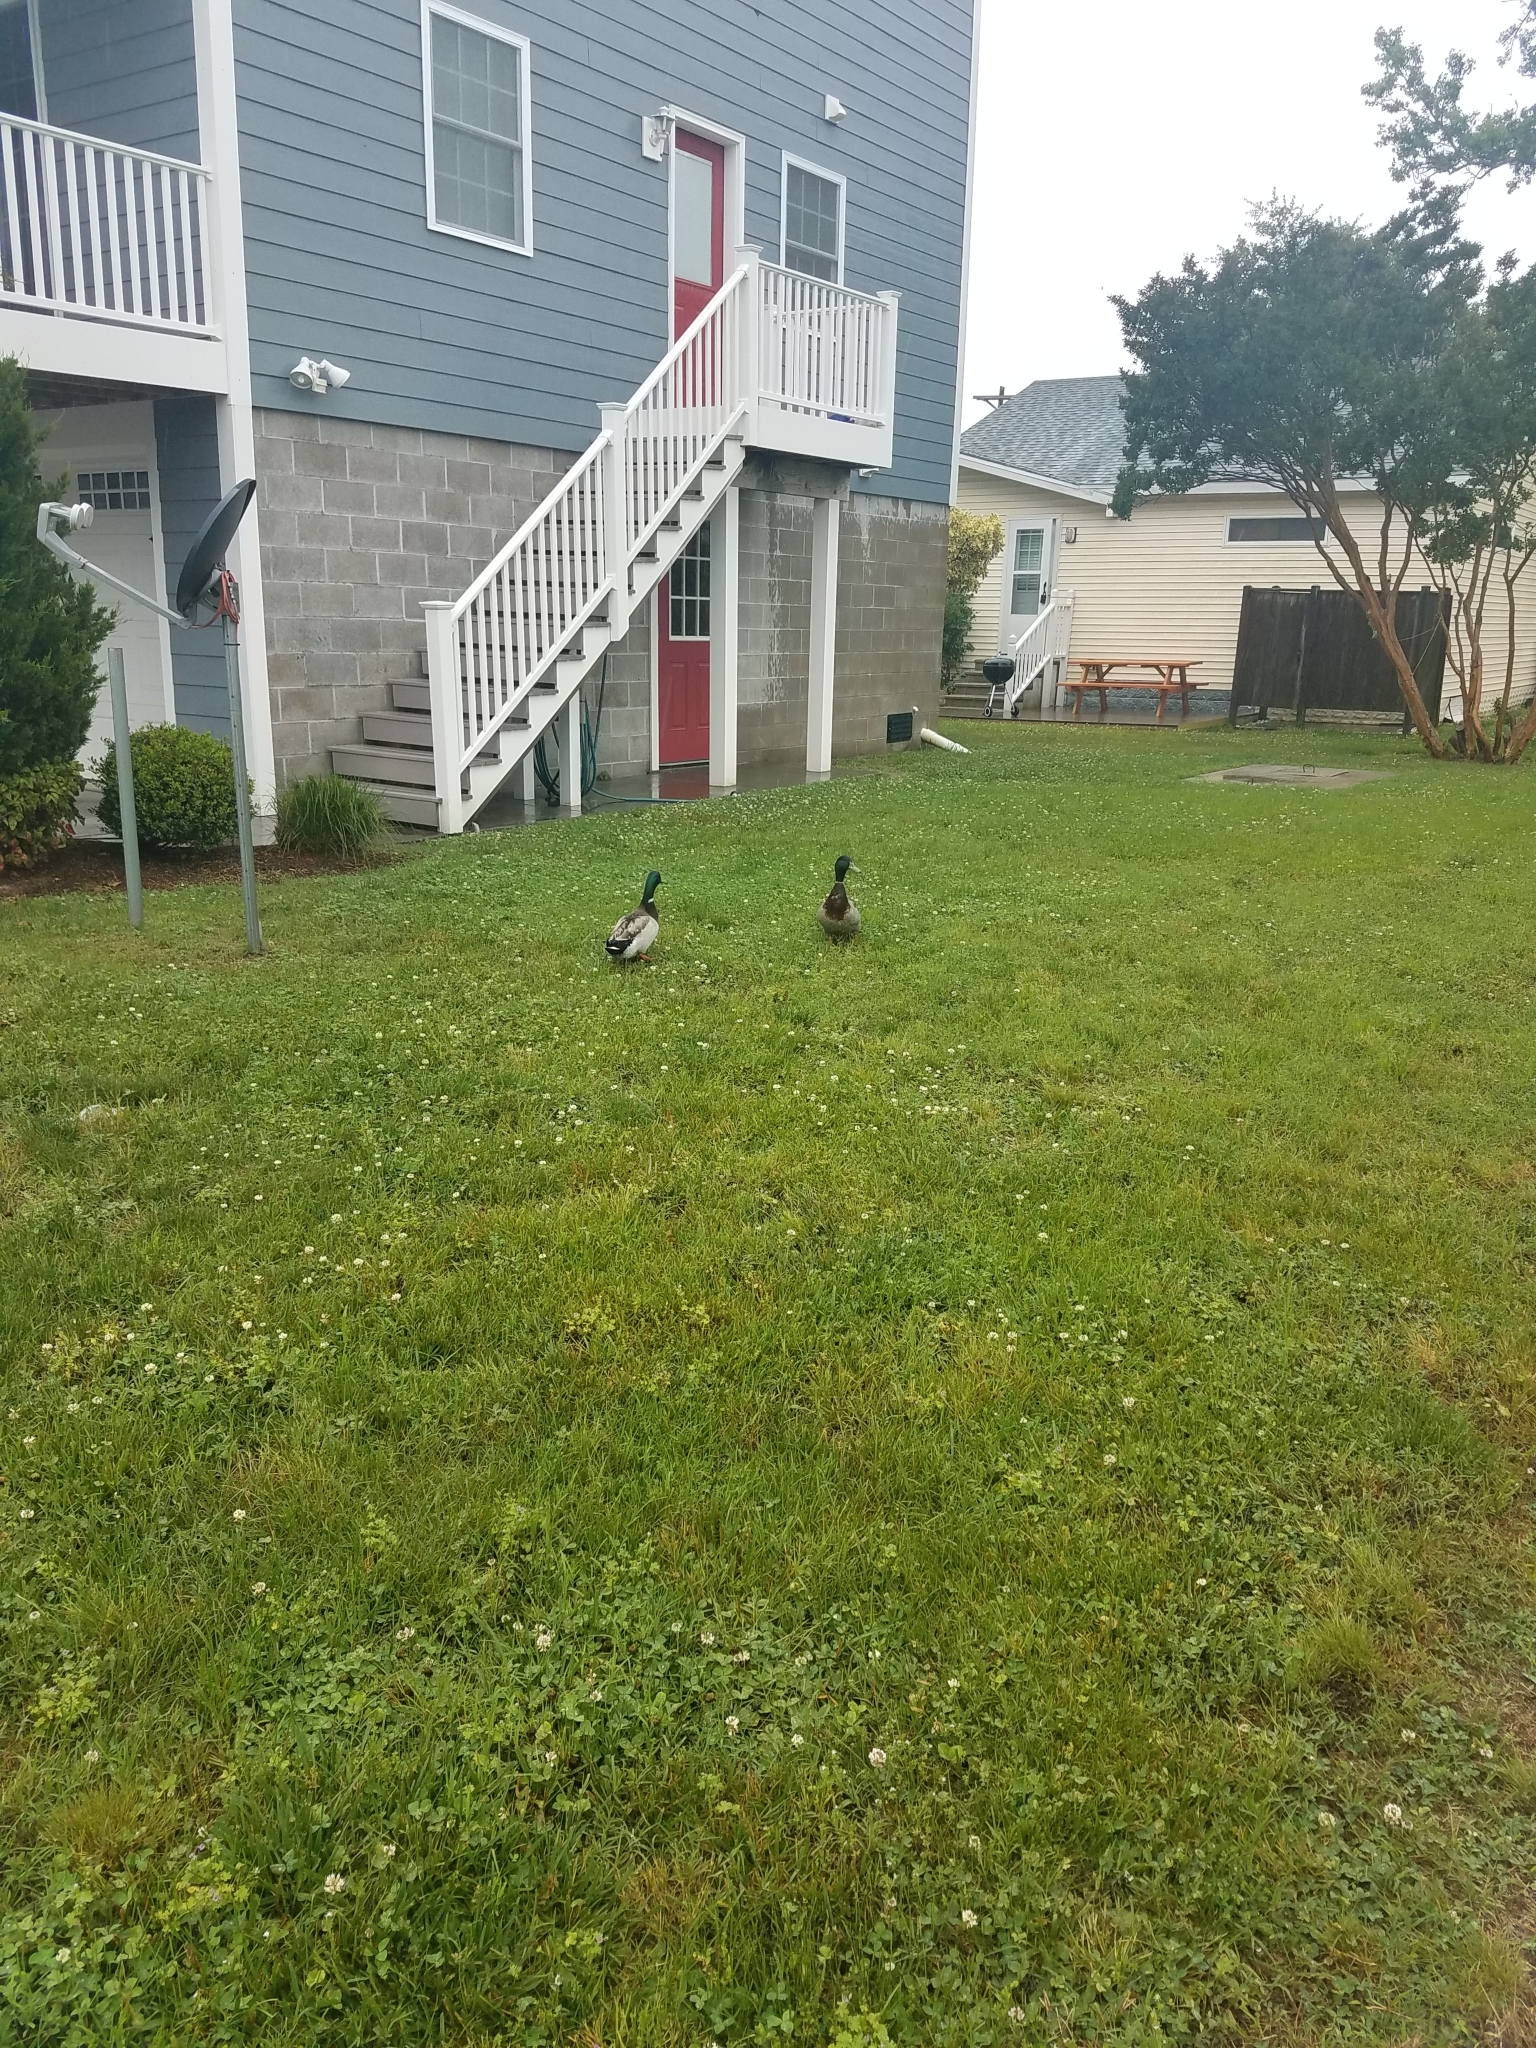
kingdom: Animalia
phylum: Chordata
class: Aves
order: Anseriformes
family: Anatidae
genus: Anas
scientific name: Anas platyrhynchos
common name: Mallard
